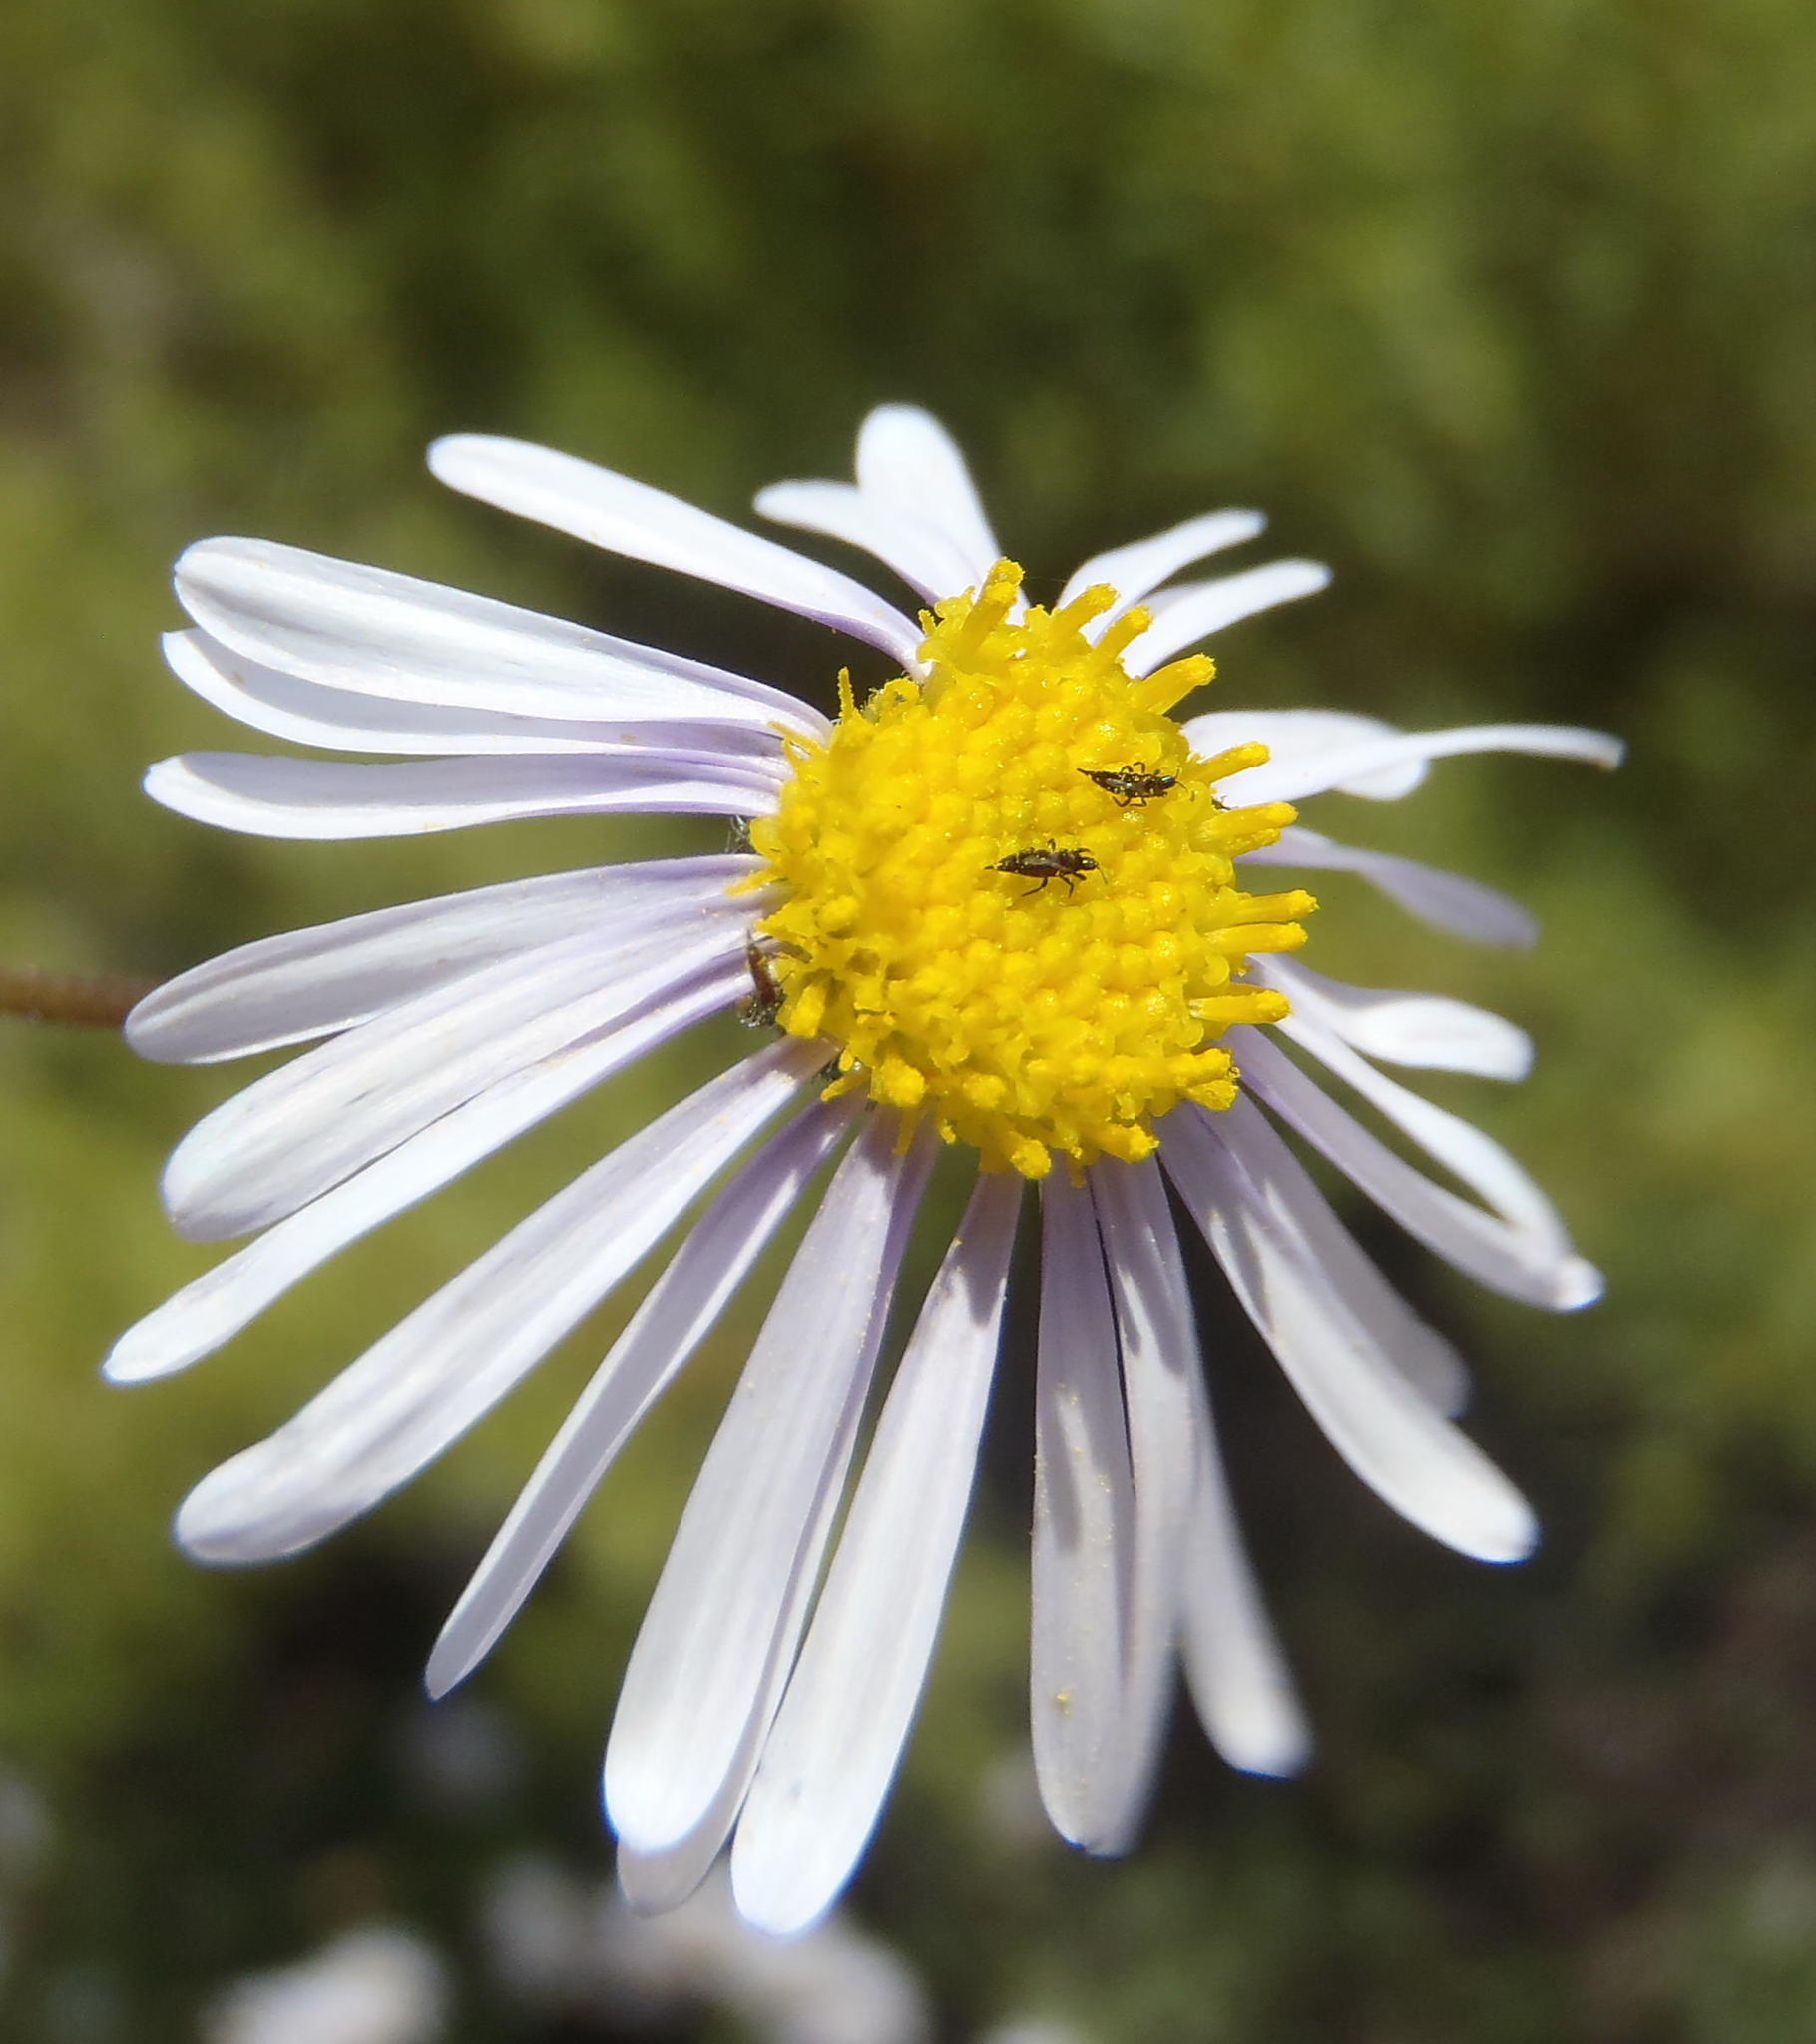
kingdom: Plantae
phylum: Tracheophyta
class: Magnoliopsida
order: Asterales
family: Asteraceae
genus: Felicia
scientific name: Felicia muricata
